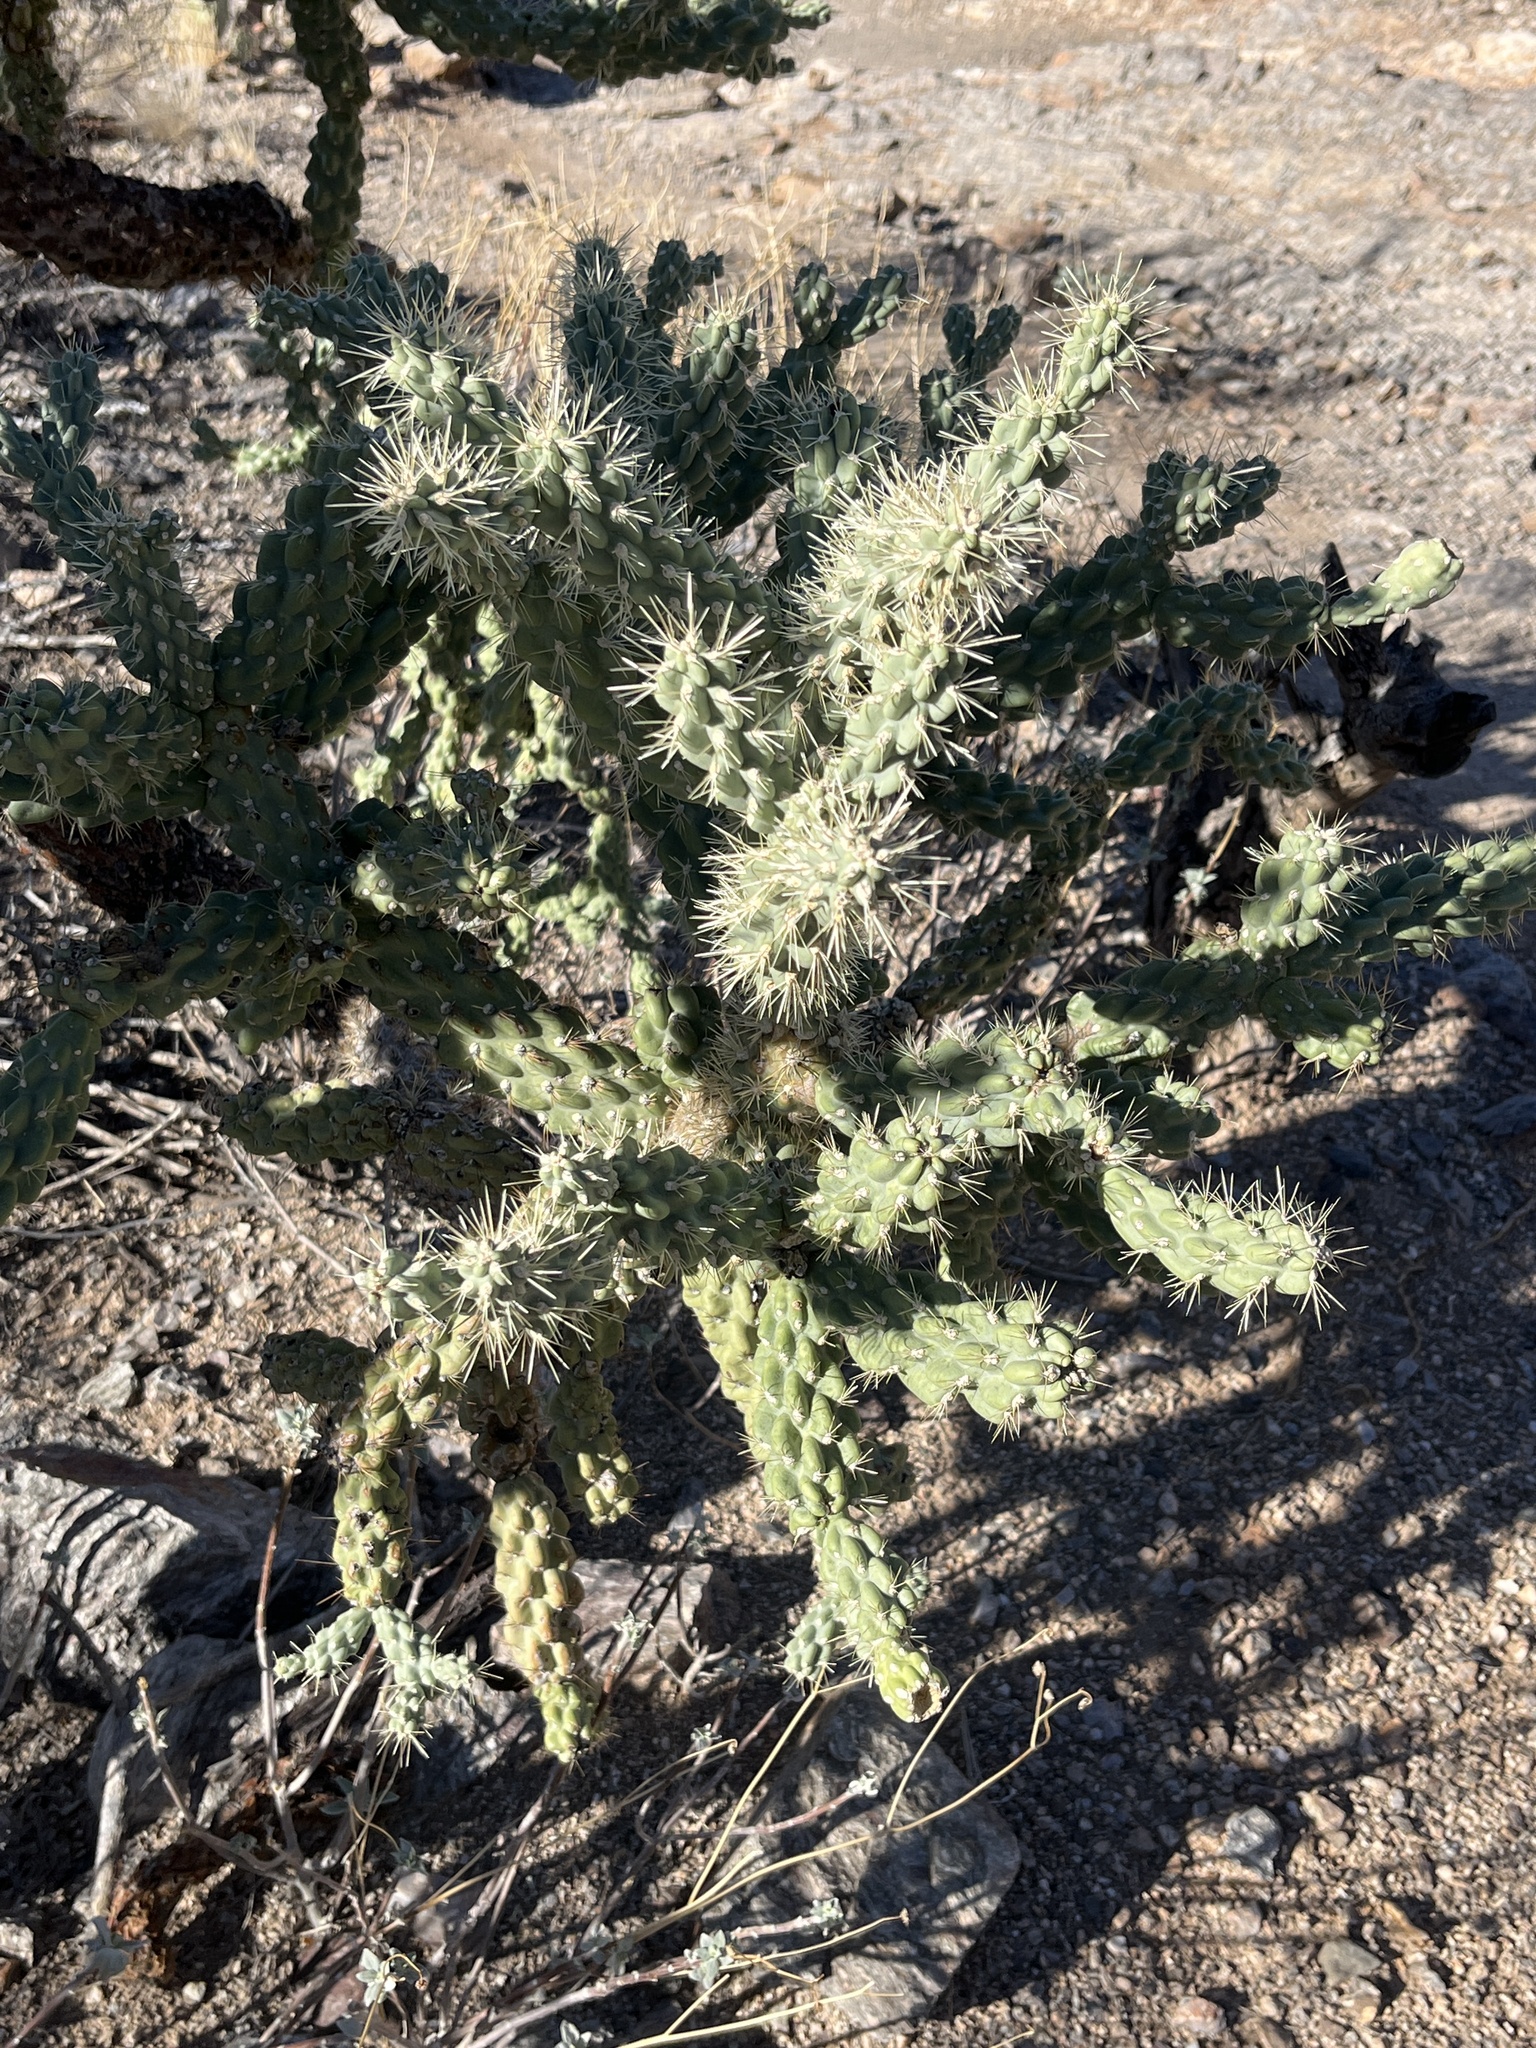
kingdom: Plantae
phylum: Tracheophyta
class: Magnoliopsida
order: Caryophyllales
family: Cactaceae
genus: Cylindropuntia
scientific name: Cylindropuntia fulgida
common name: Jumping cholla
